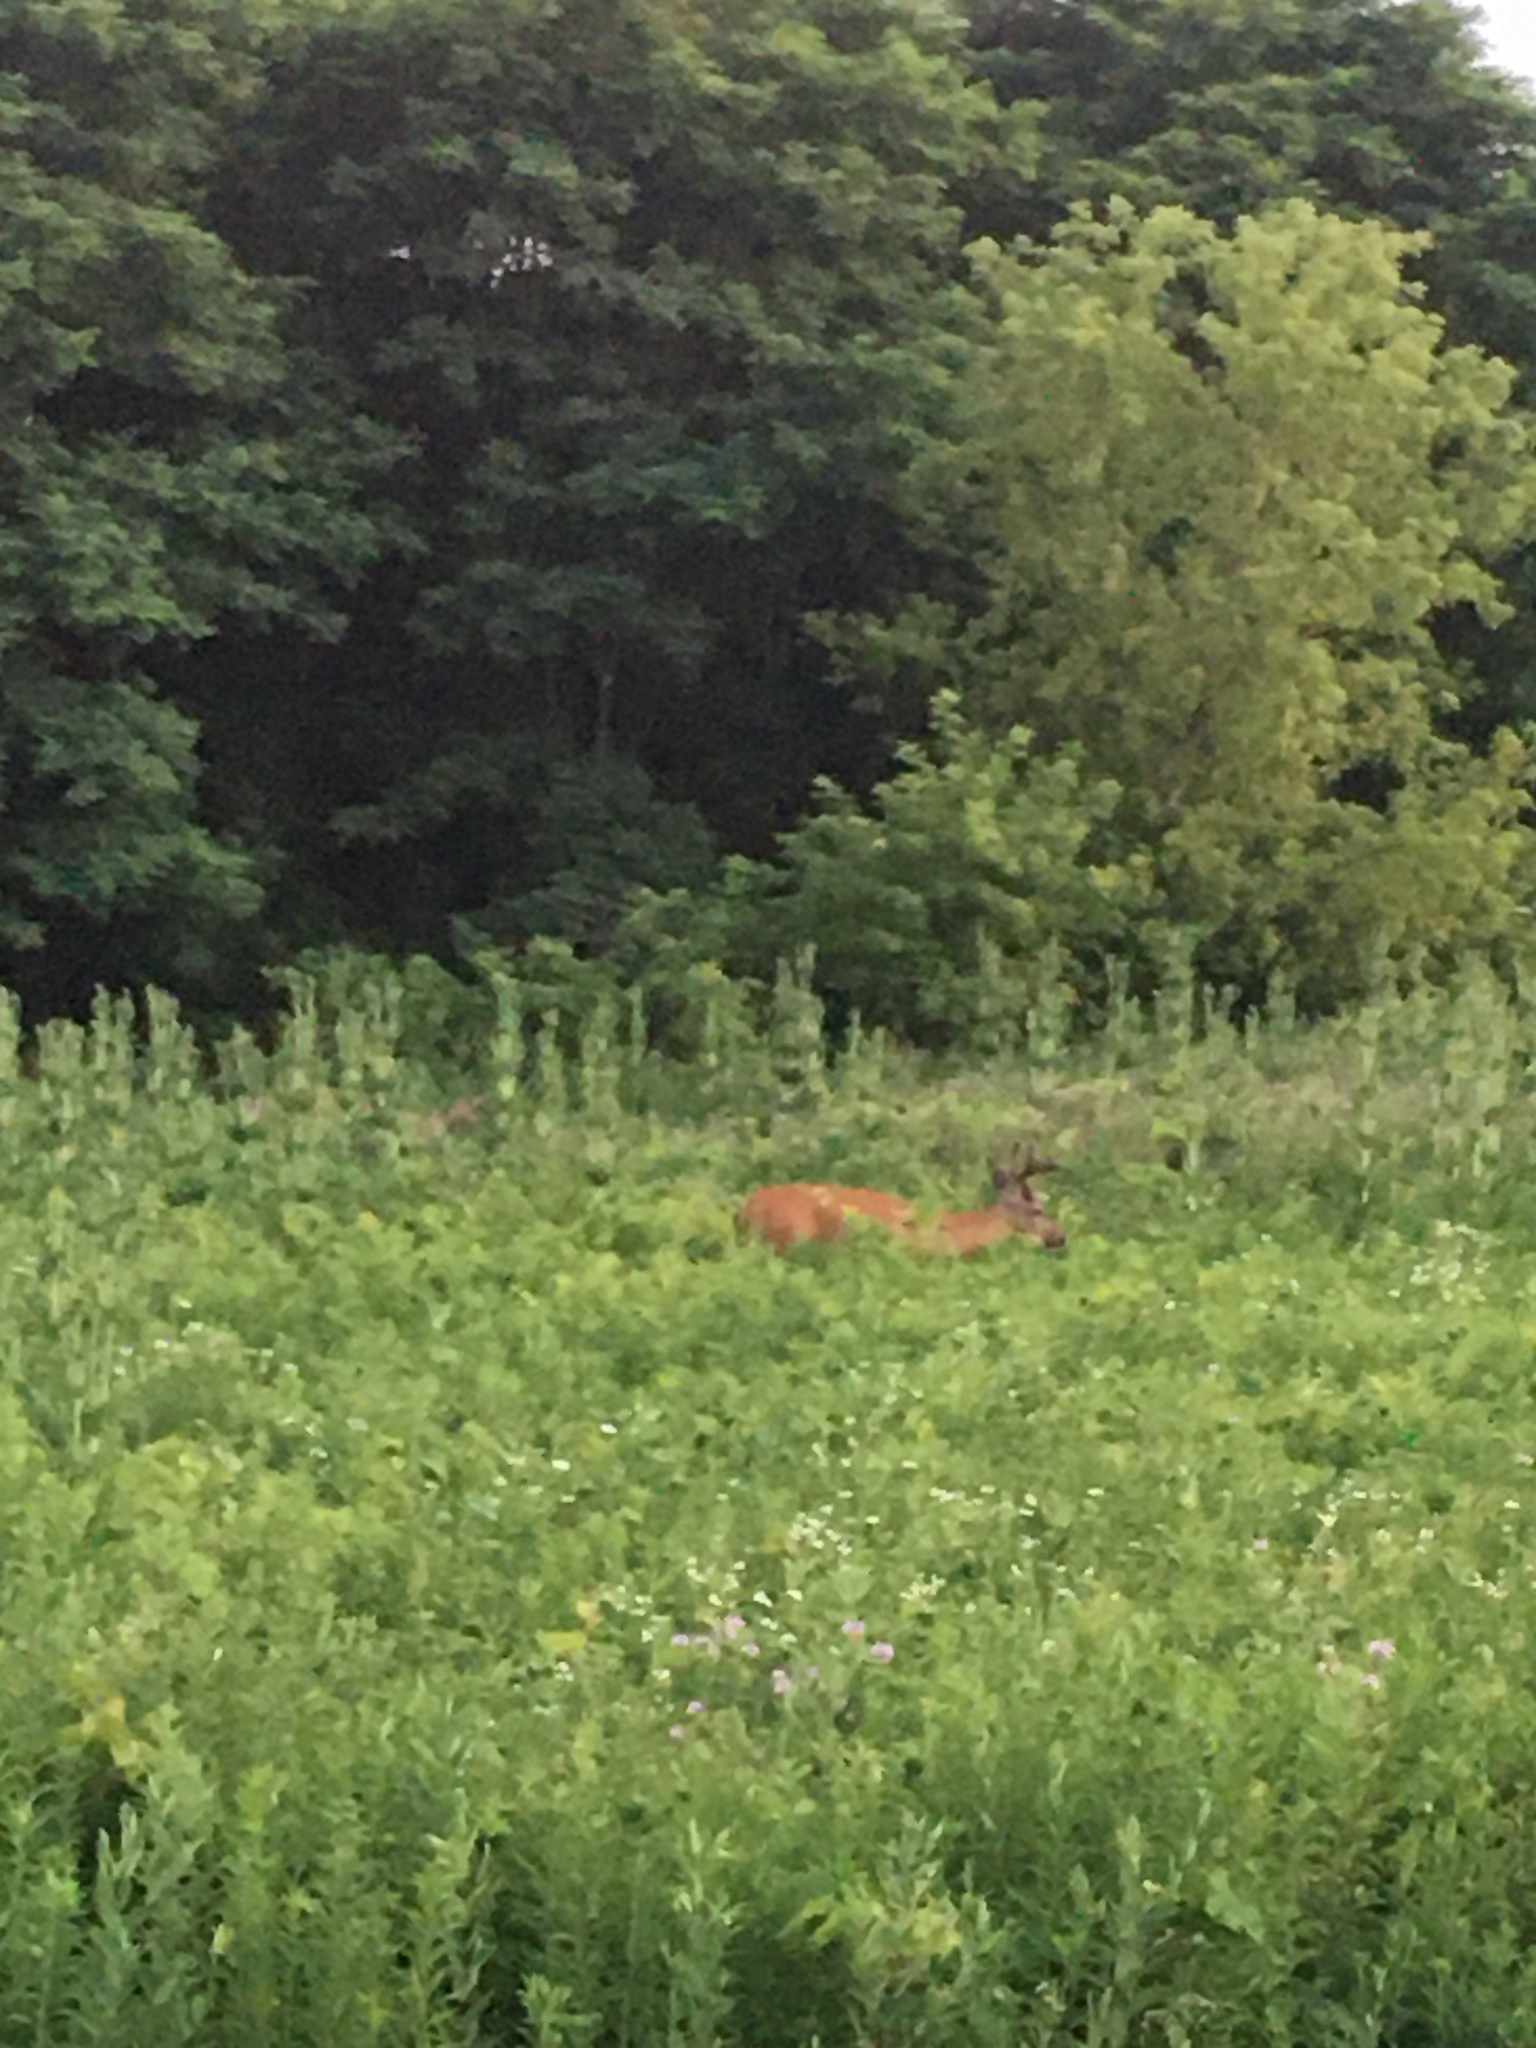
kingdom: Animalia
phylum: Chordata
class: Mammalia
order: Artiodactyla
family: Cervidae
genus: Odocoileus
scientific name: Odocoileus virginianus
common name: White-tailed deer
